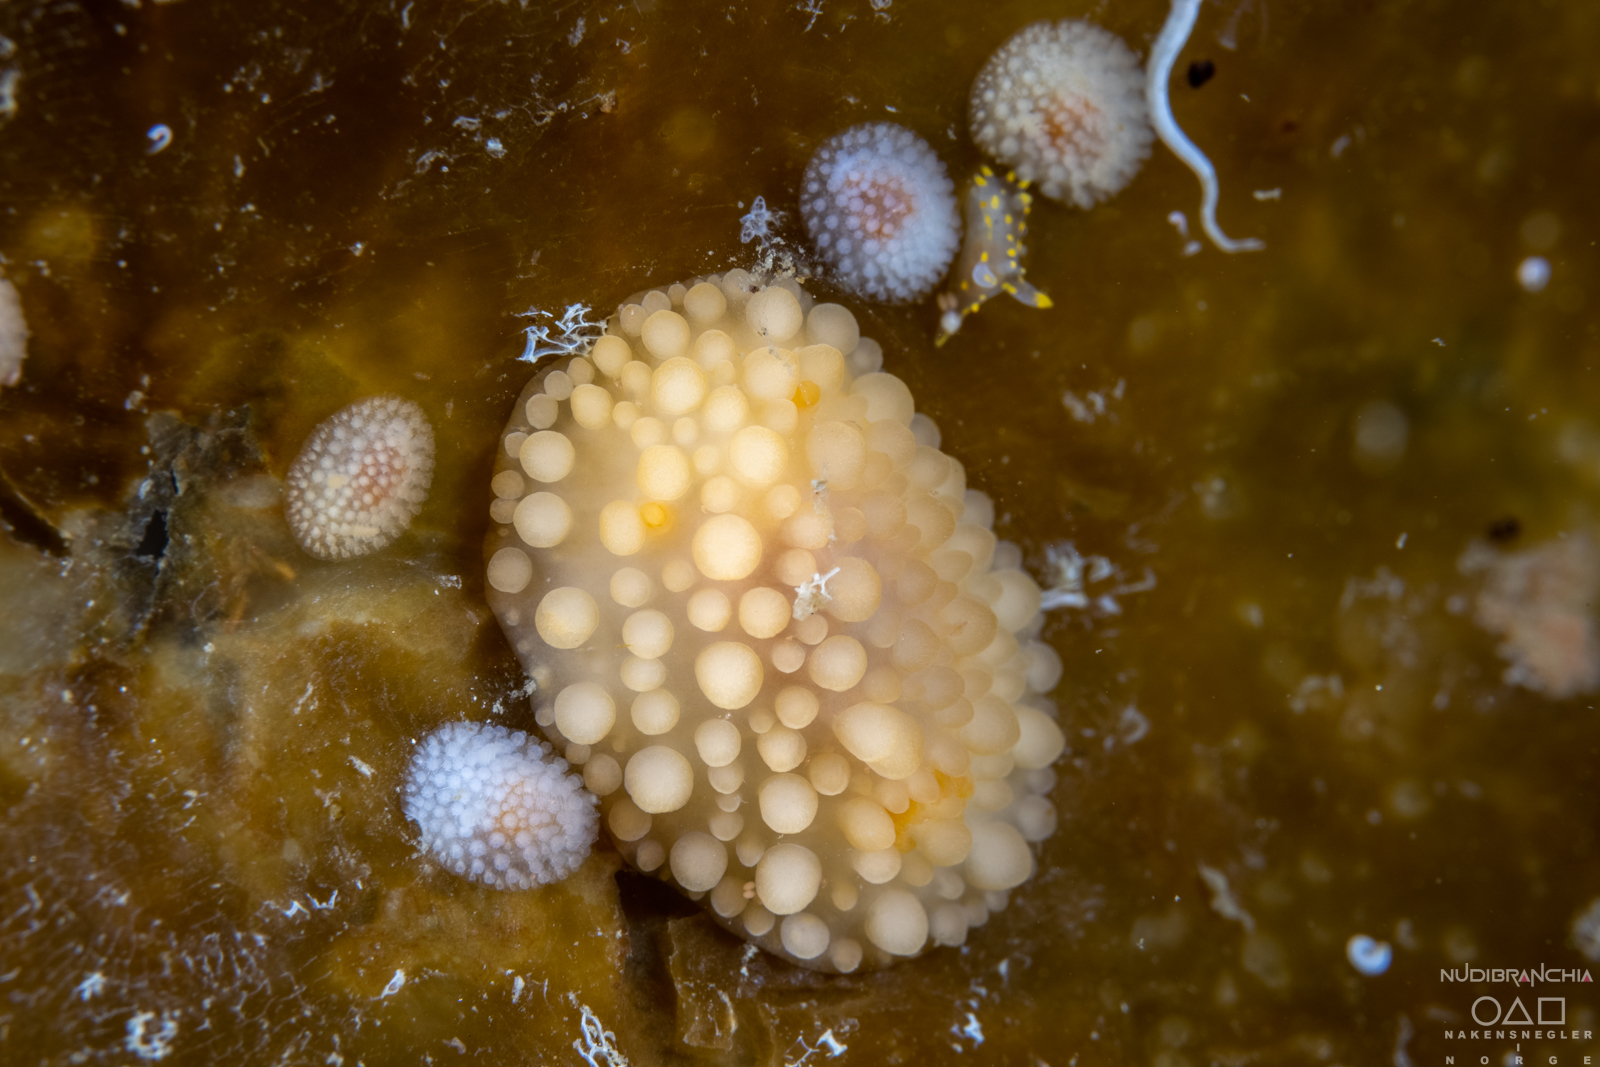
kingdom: Animalia
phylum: Mollusca
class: Gastropoda
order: Nudibranchia
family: Onchidorididae
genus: Adalaria
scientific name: Adalaria loveni
